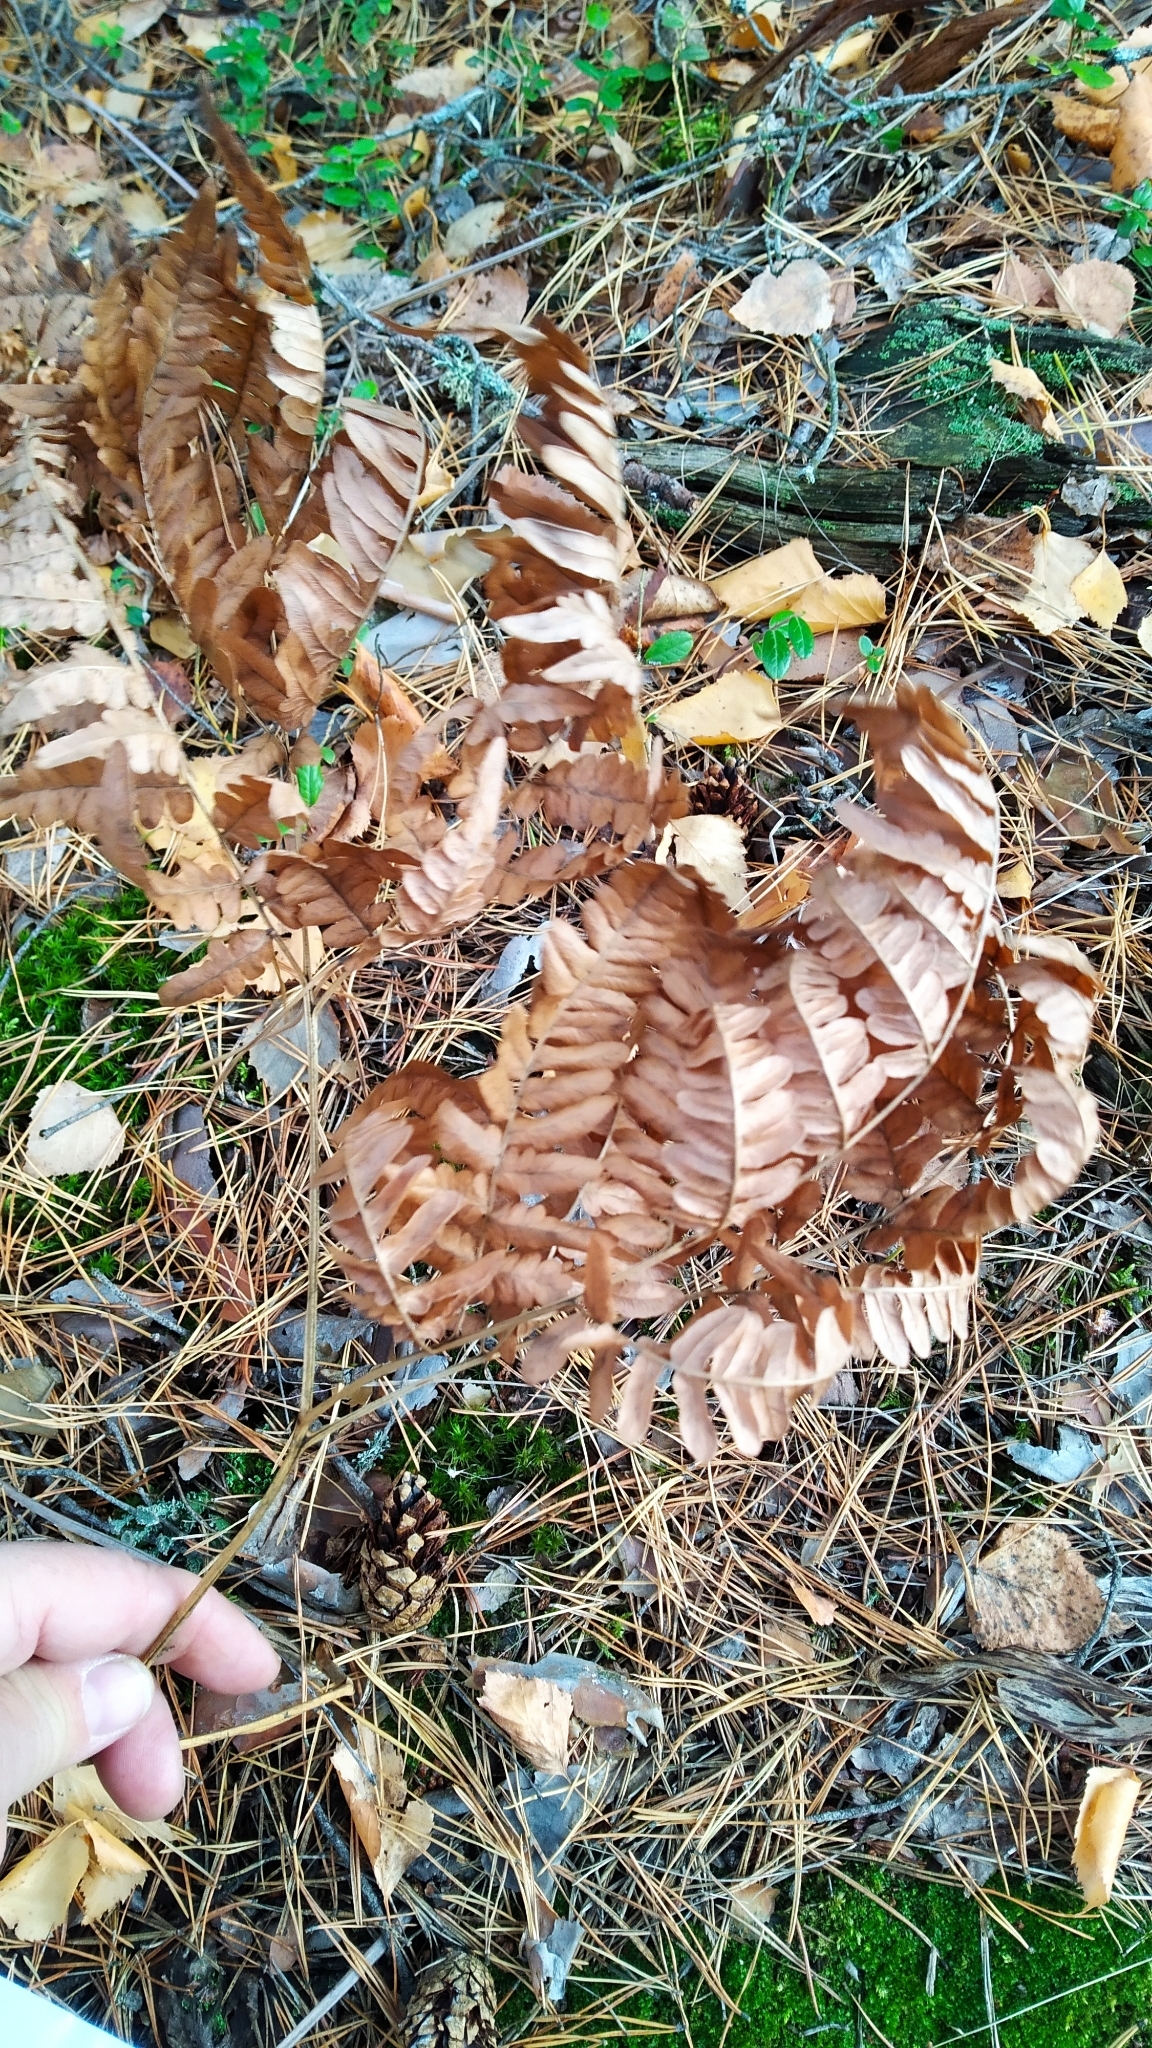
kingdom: Plantae
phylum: Tracheophyta
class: Polypodiopsida
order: Polypodiales
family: Dennstaedtiaceae
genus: Pteridium
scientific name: Pteridium aquilinum
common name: Bracken
